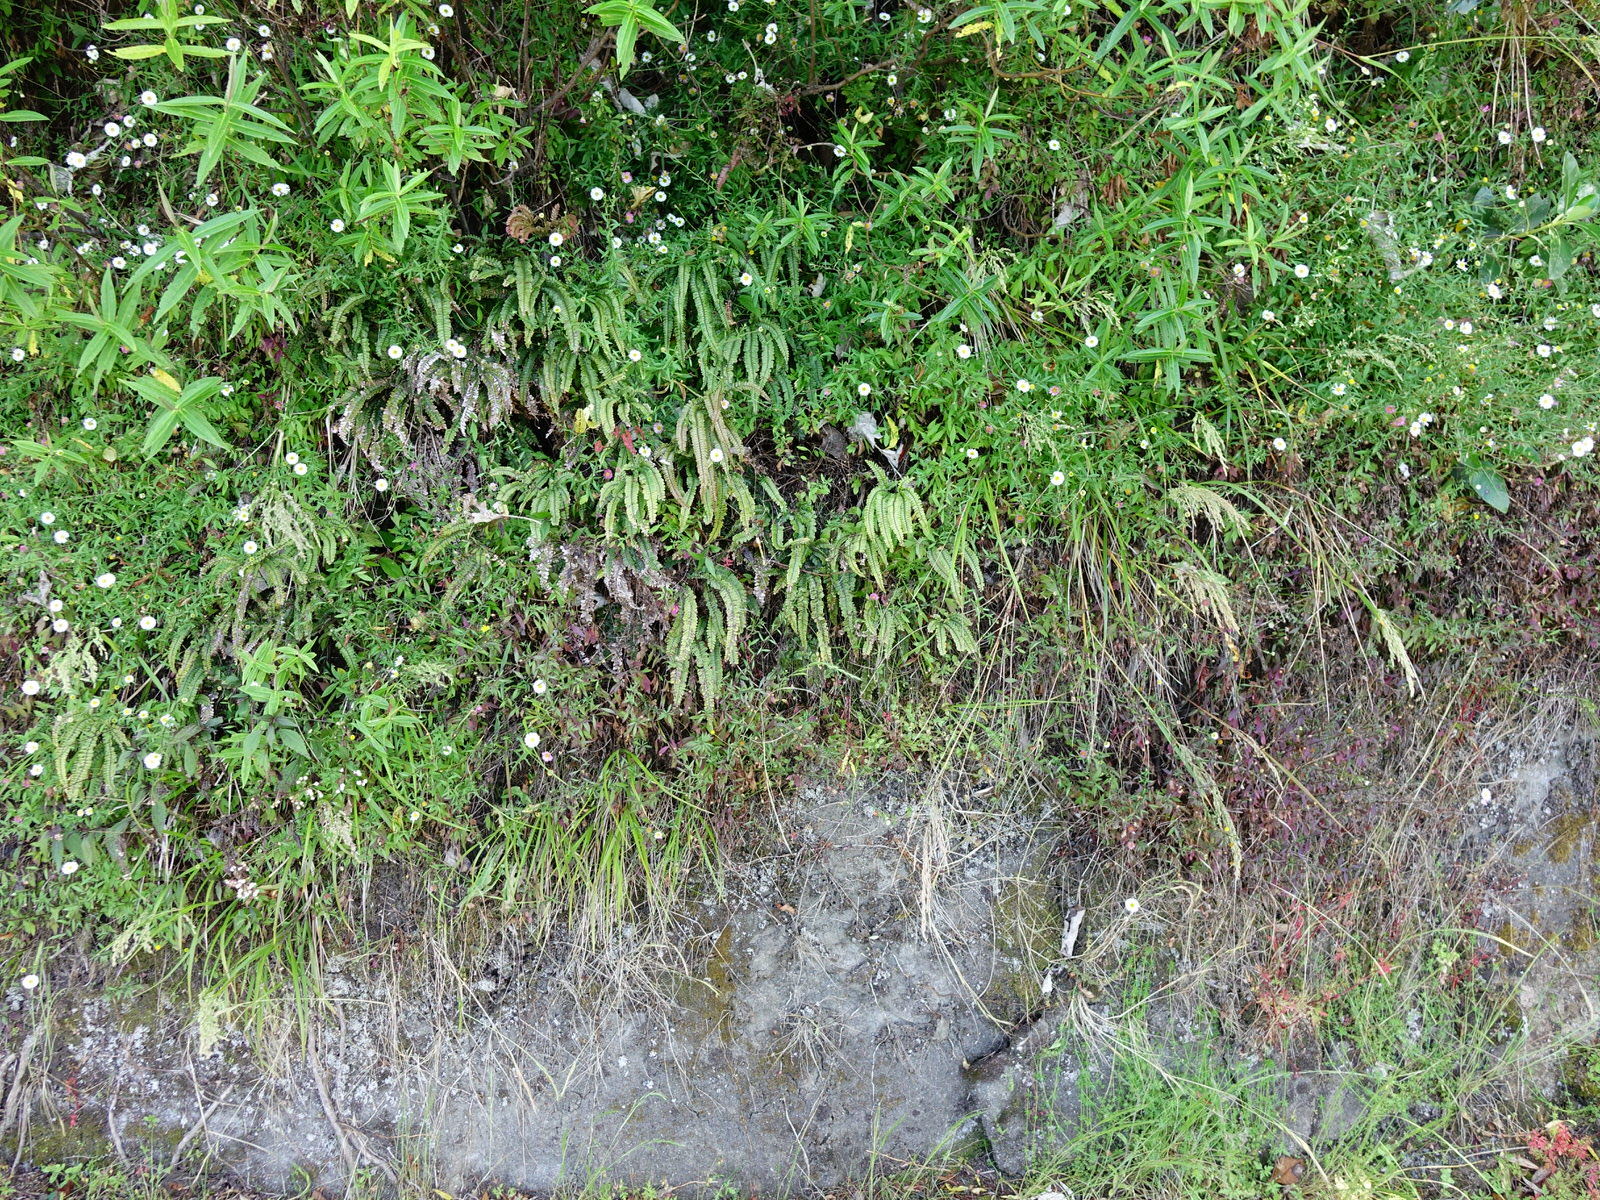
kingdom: Plantae
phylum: Tracheophyta
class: Polypodiopsida
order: Polypodiales
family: Pteridaceae
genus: Adiantum
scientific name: Adiantum hispidulum
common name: Rough maidenhair
